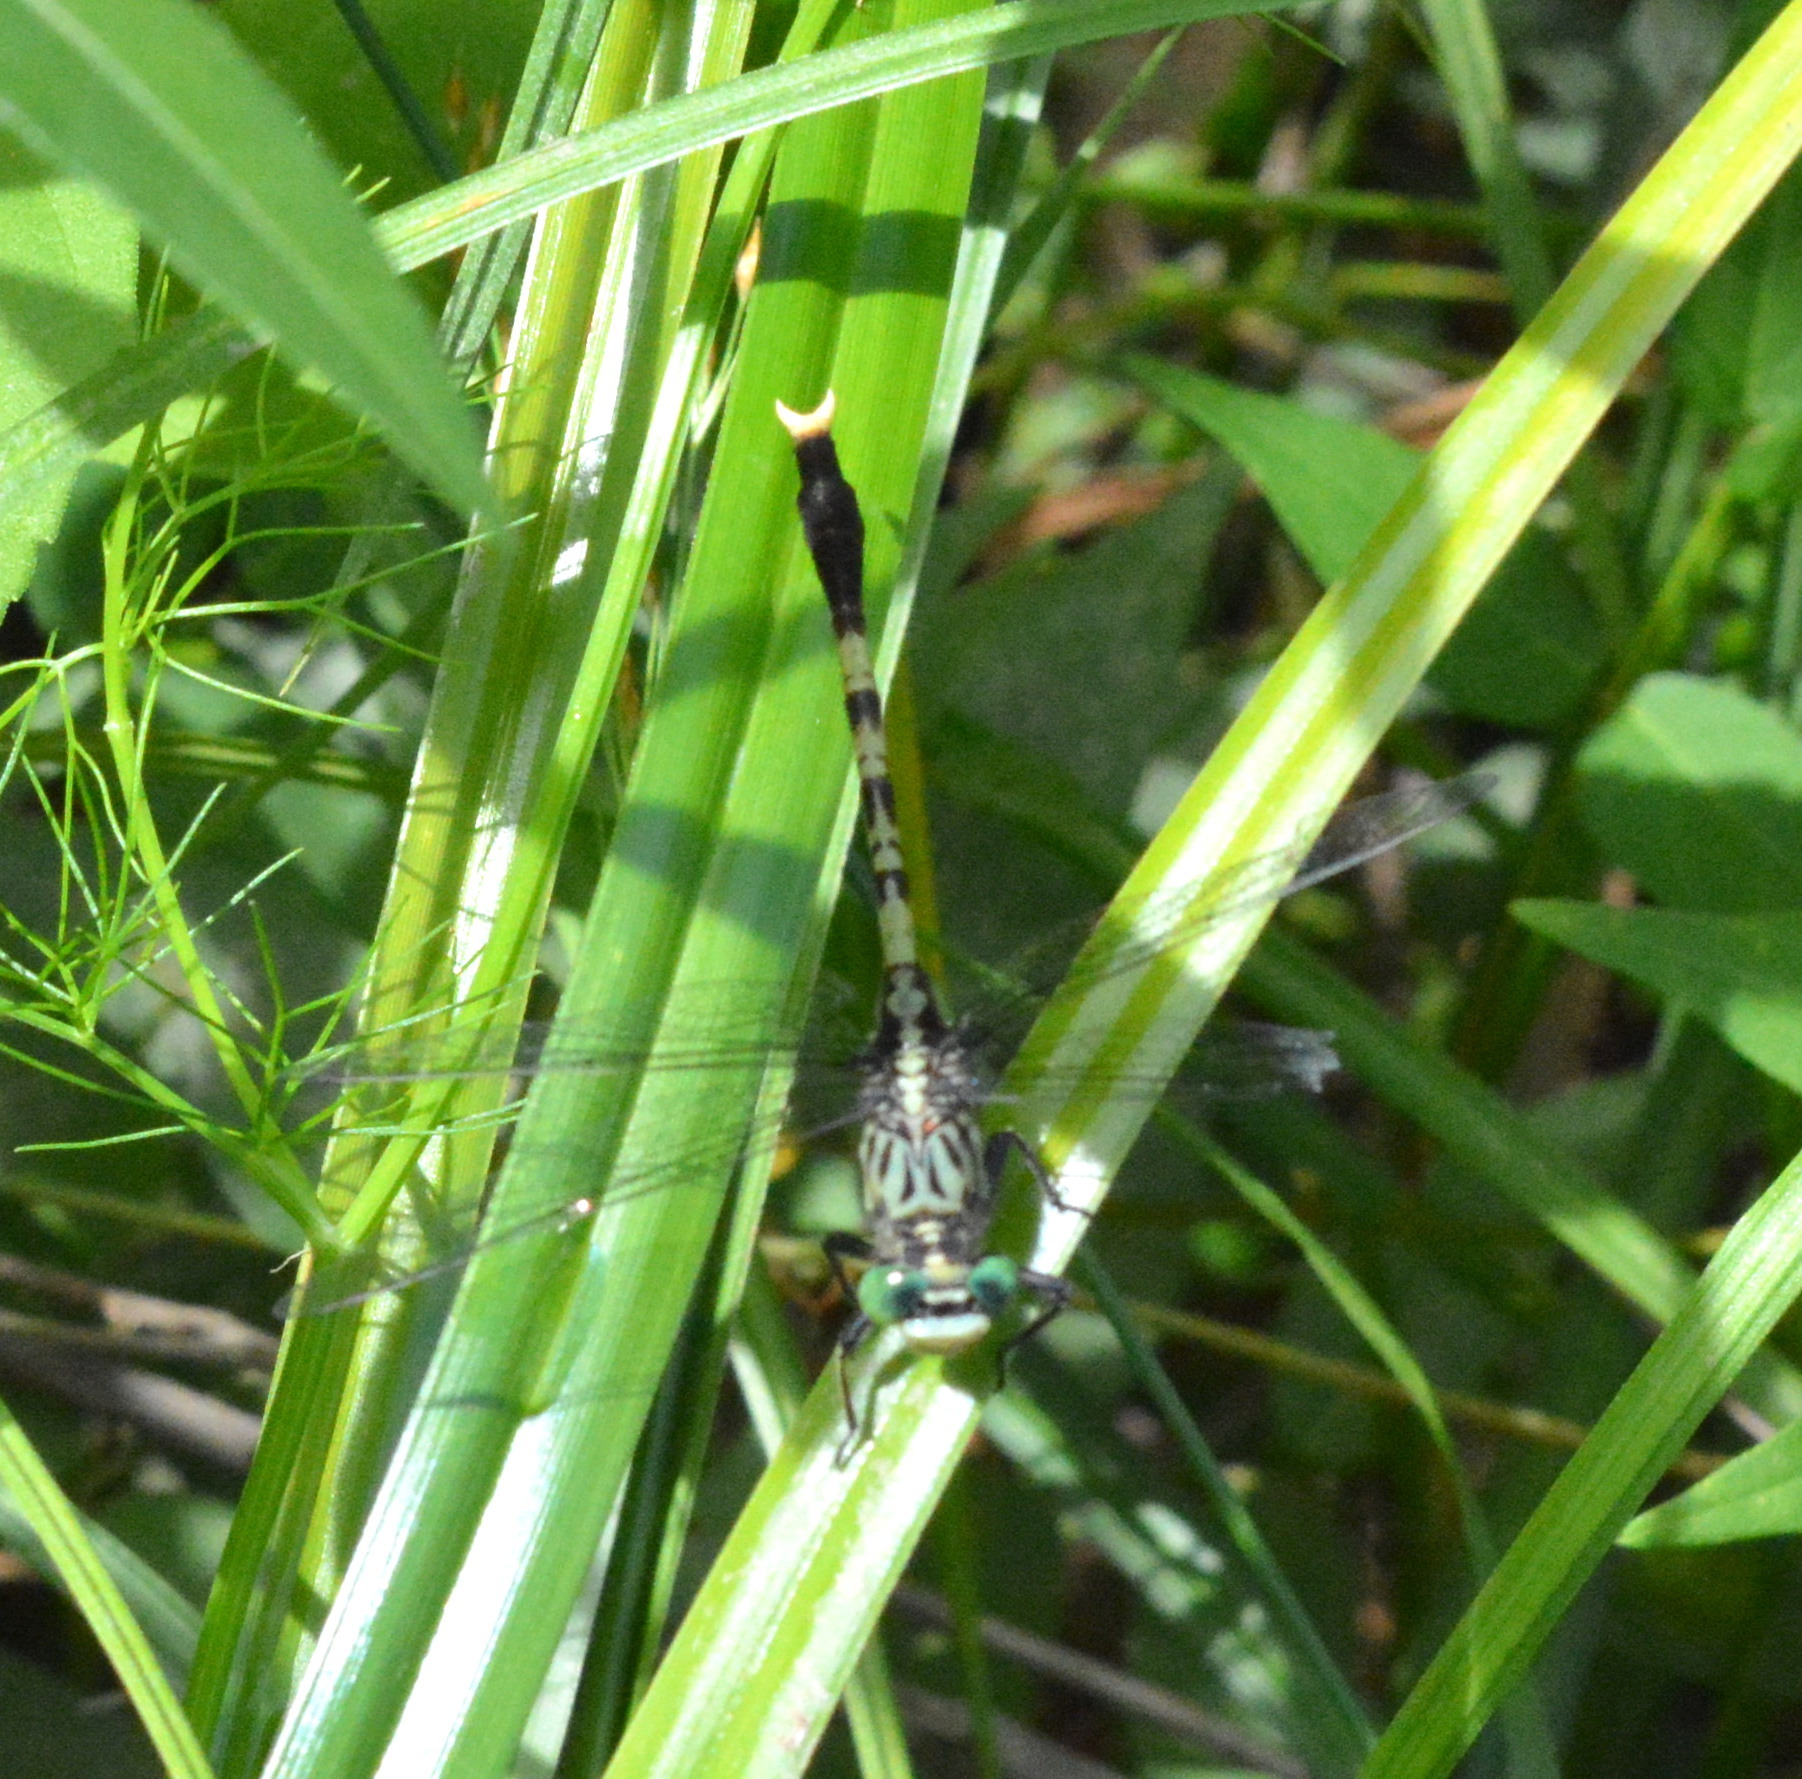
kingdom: Animalia
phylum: Arthropoda
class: Insecta
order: Odonata
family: Gomphidae
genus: Arigomphus
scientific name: Arigomphus maxwelli
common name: Bayou clubtail
